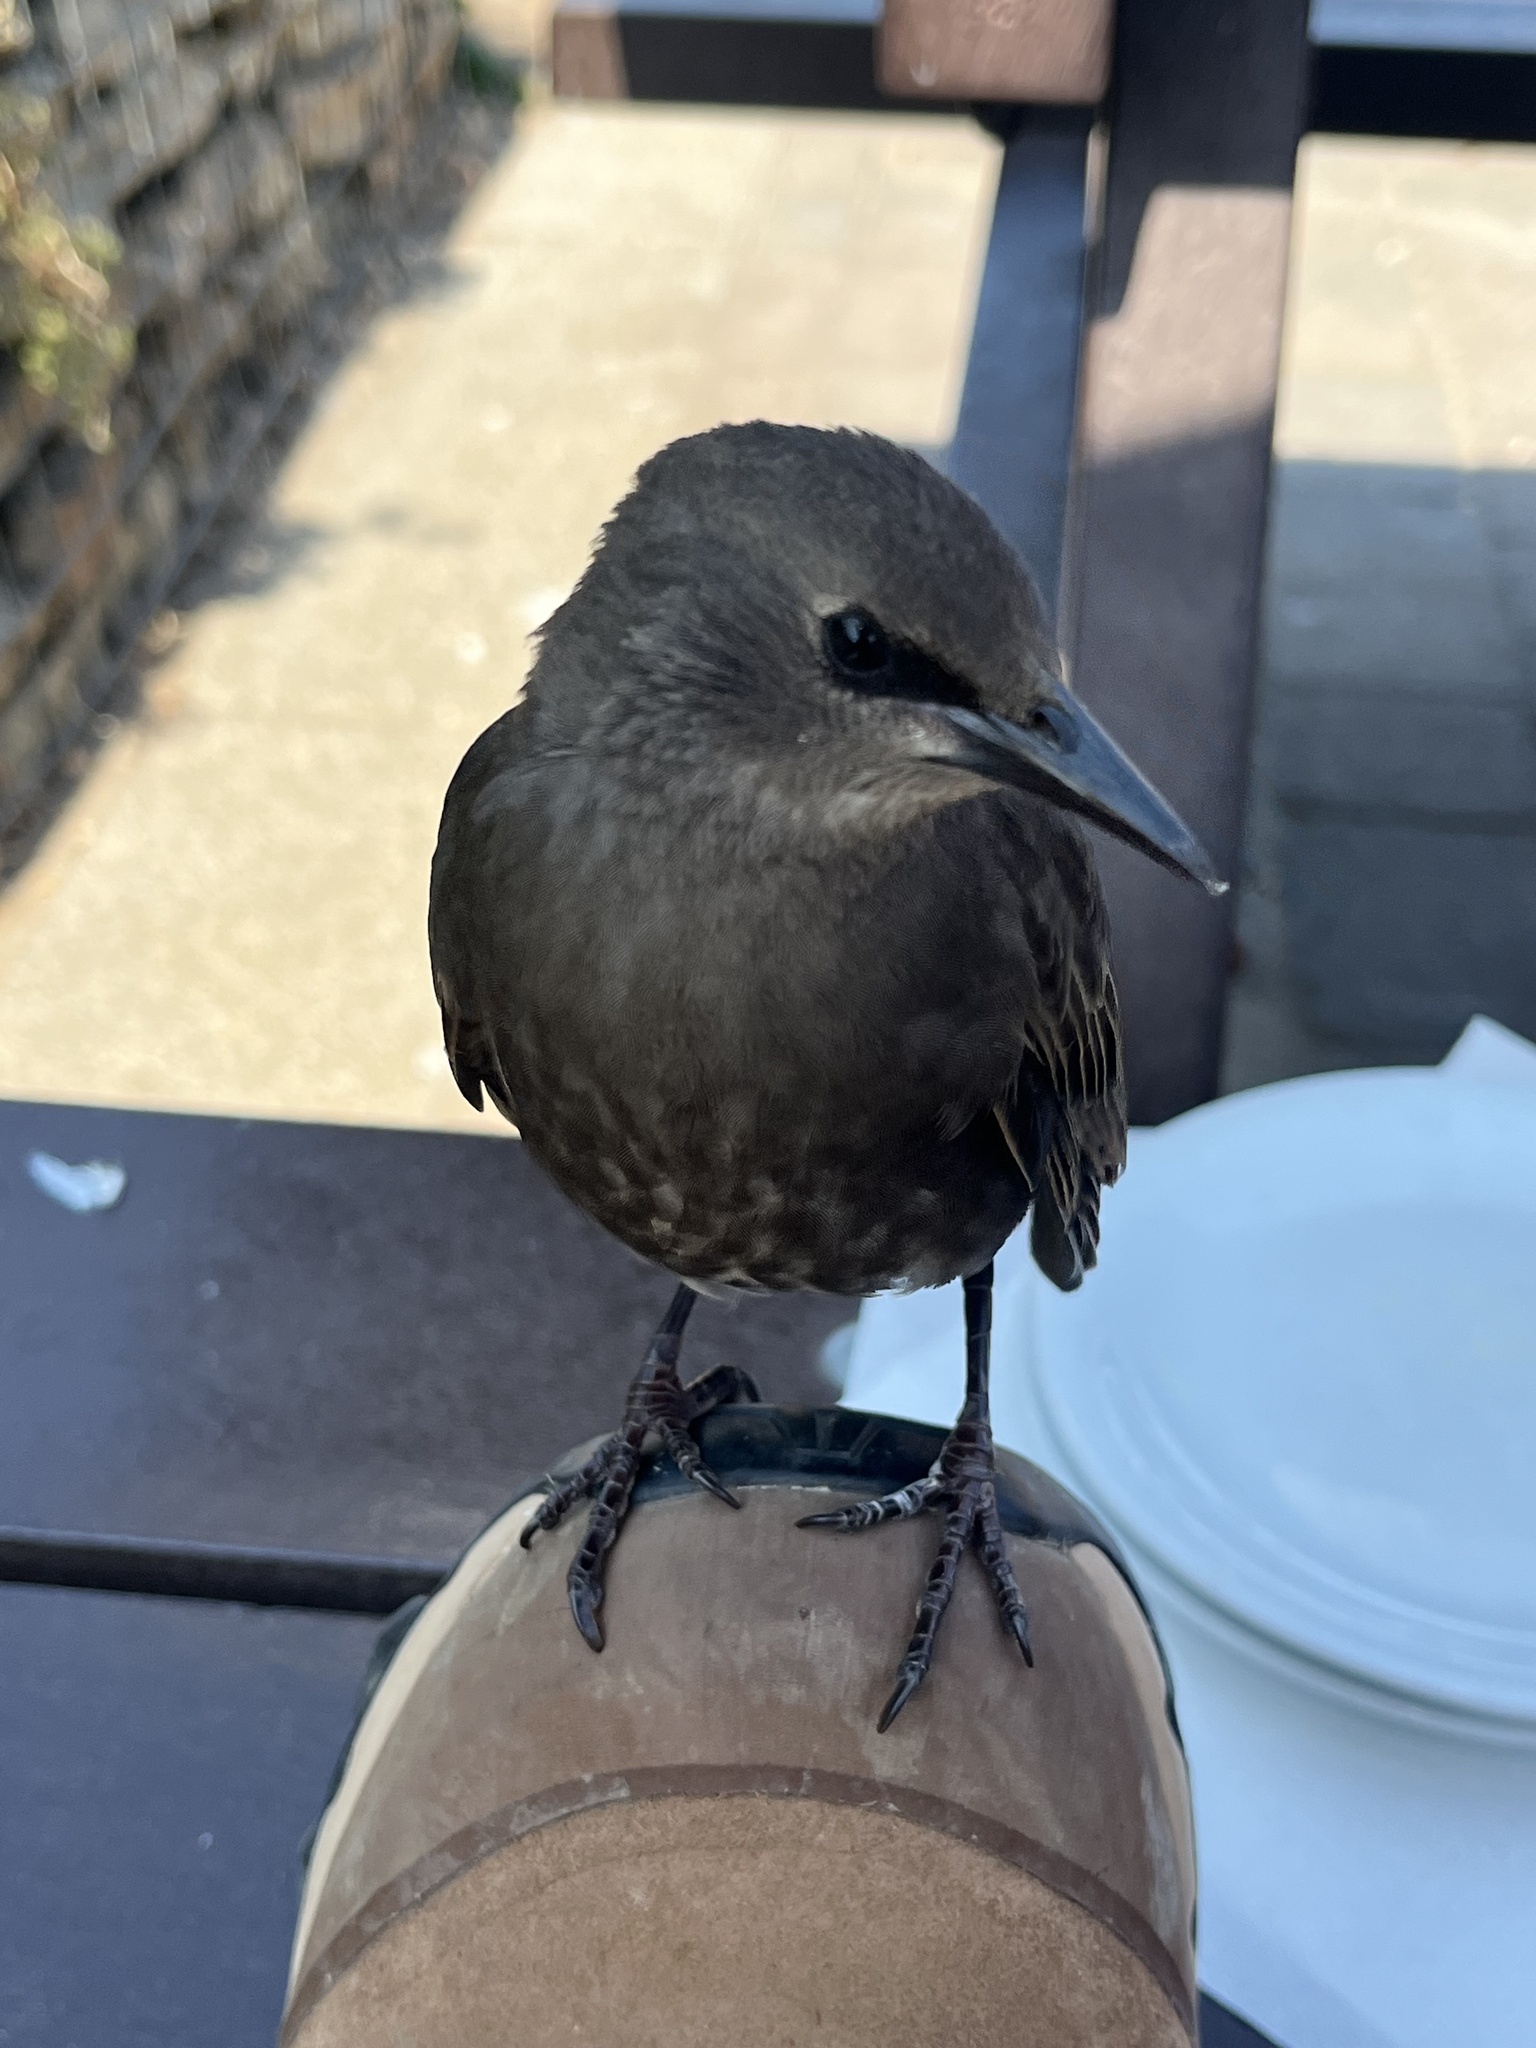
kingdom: Animalia
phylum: Chordata
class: Aves
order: Passeriformes
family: Sturnidae
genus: Sturnus
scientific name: Sturnus vulgaris
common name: Common starling
